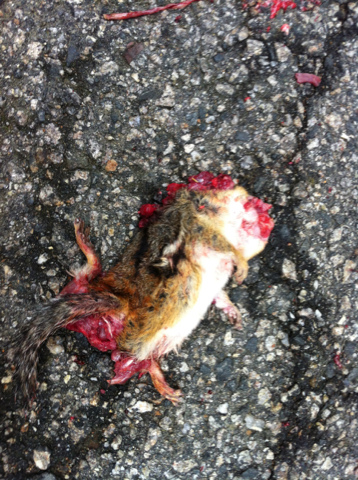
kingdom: Animalia
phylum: Chordata
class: Mammalia
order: Rodentia
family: Sciuridae
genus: Tamias
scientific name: Tamias striatus
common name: Eastern chipmunk
